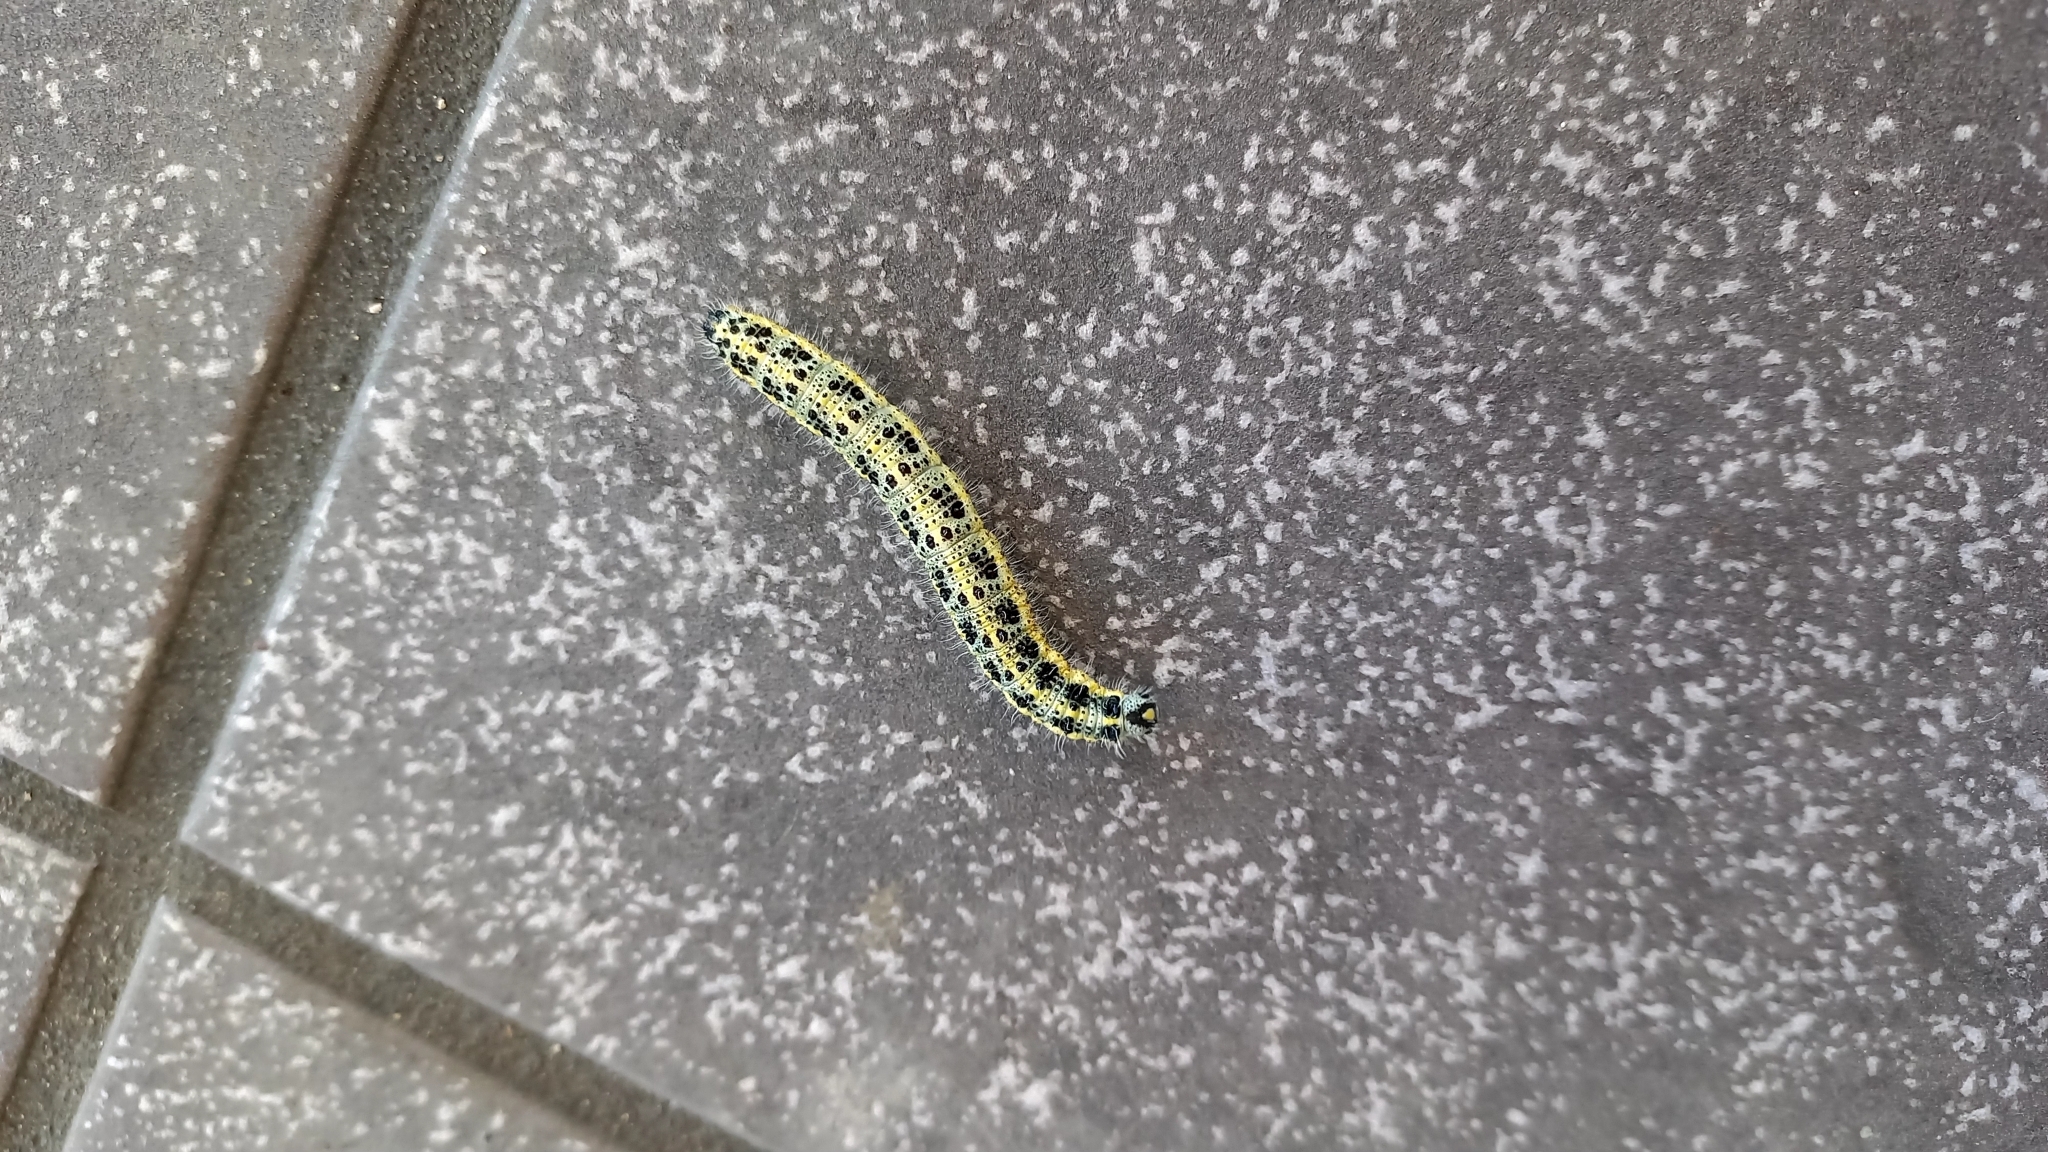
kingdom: Animalia
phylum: Arthropoda
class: Insecta
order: Lepidoptera
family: Pieridae
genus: Pieris
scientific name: Pieris brassicae
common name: Large white
